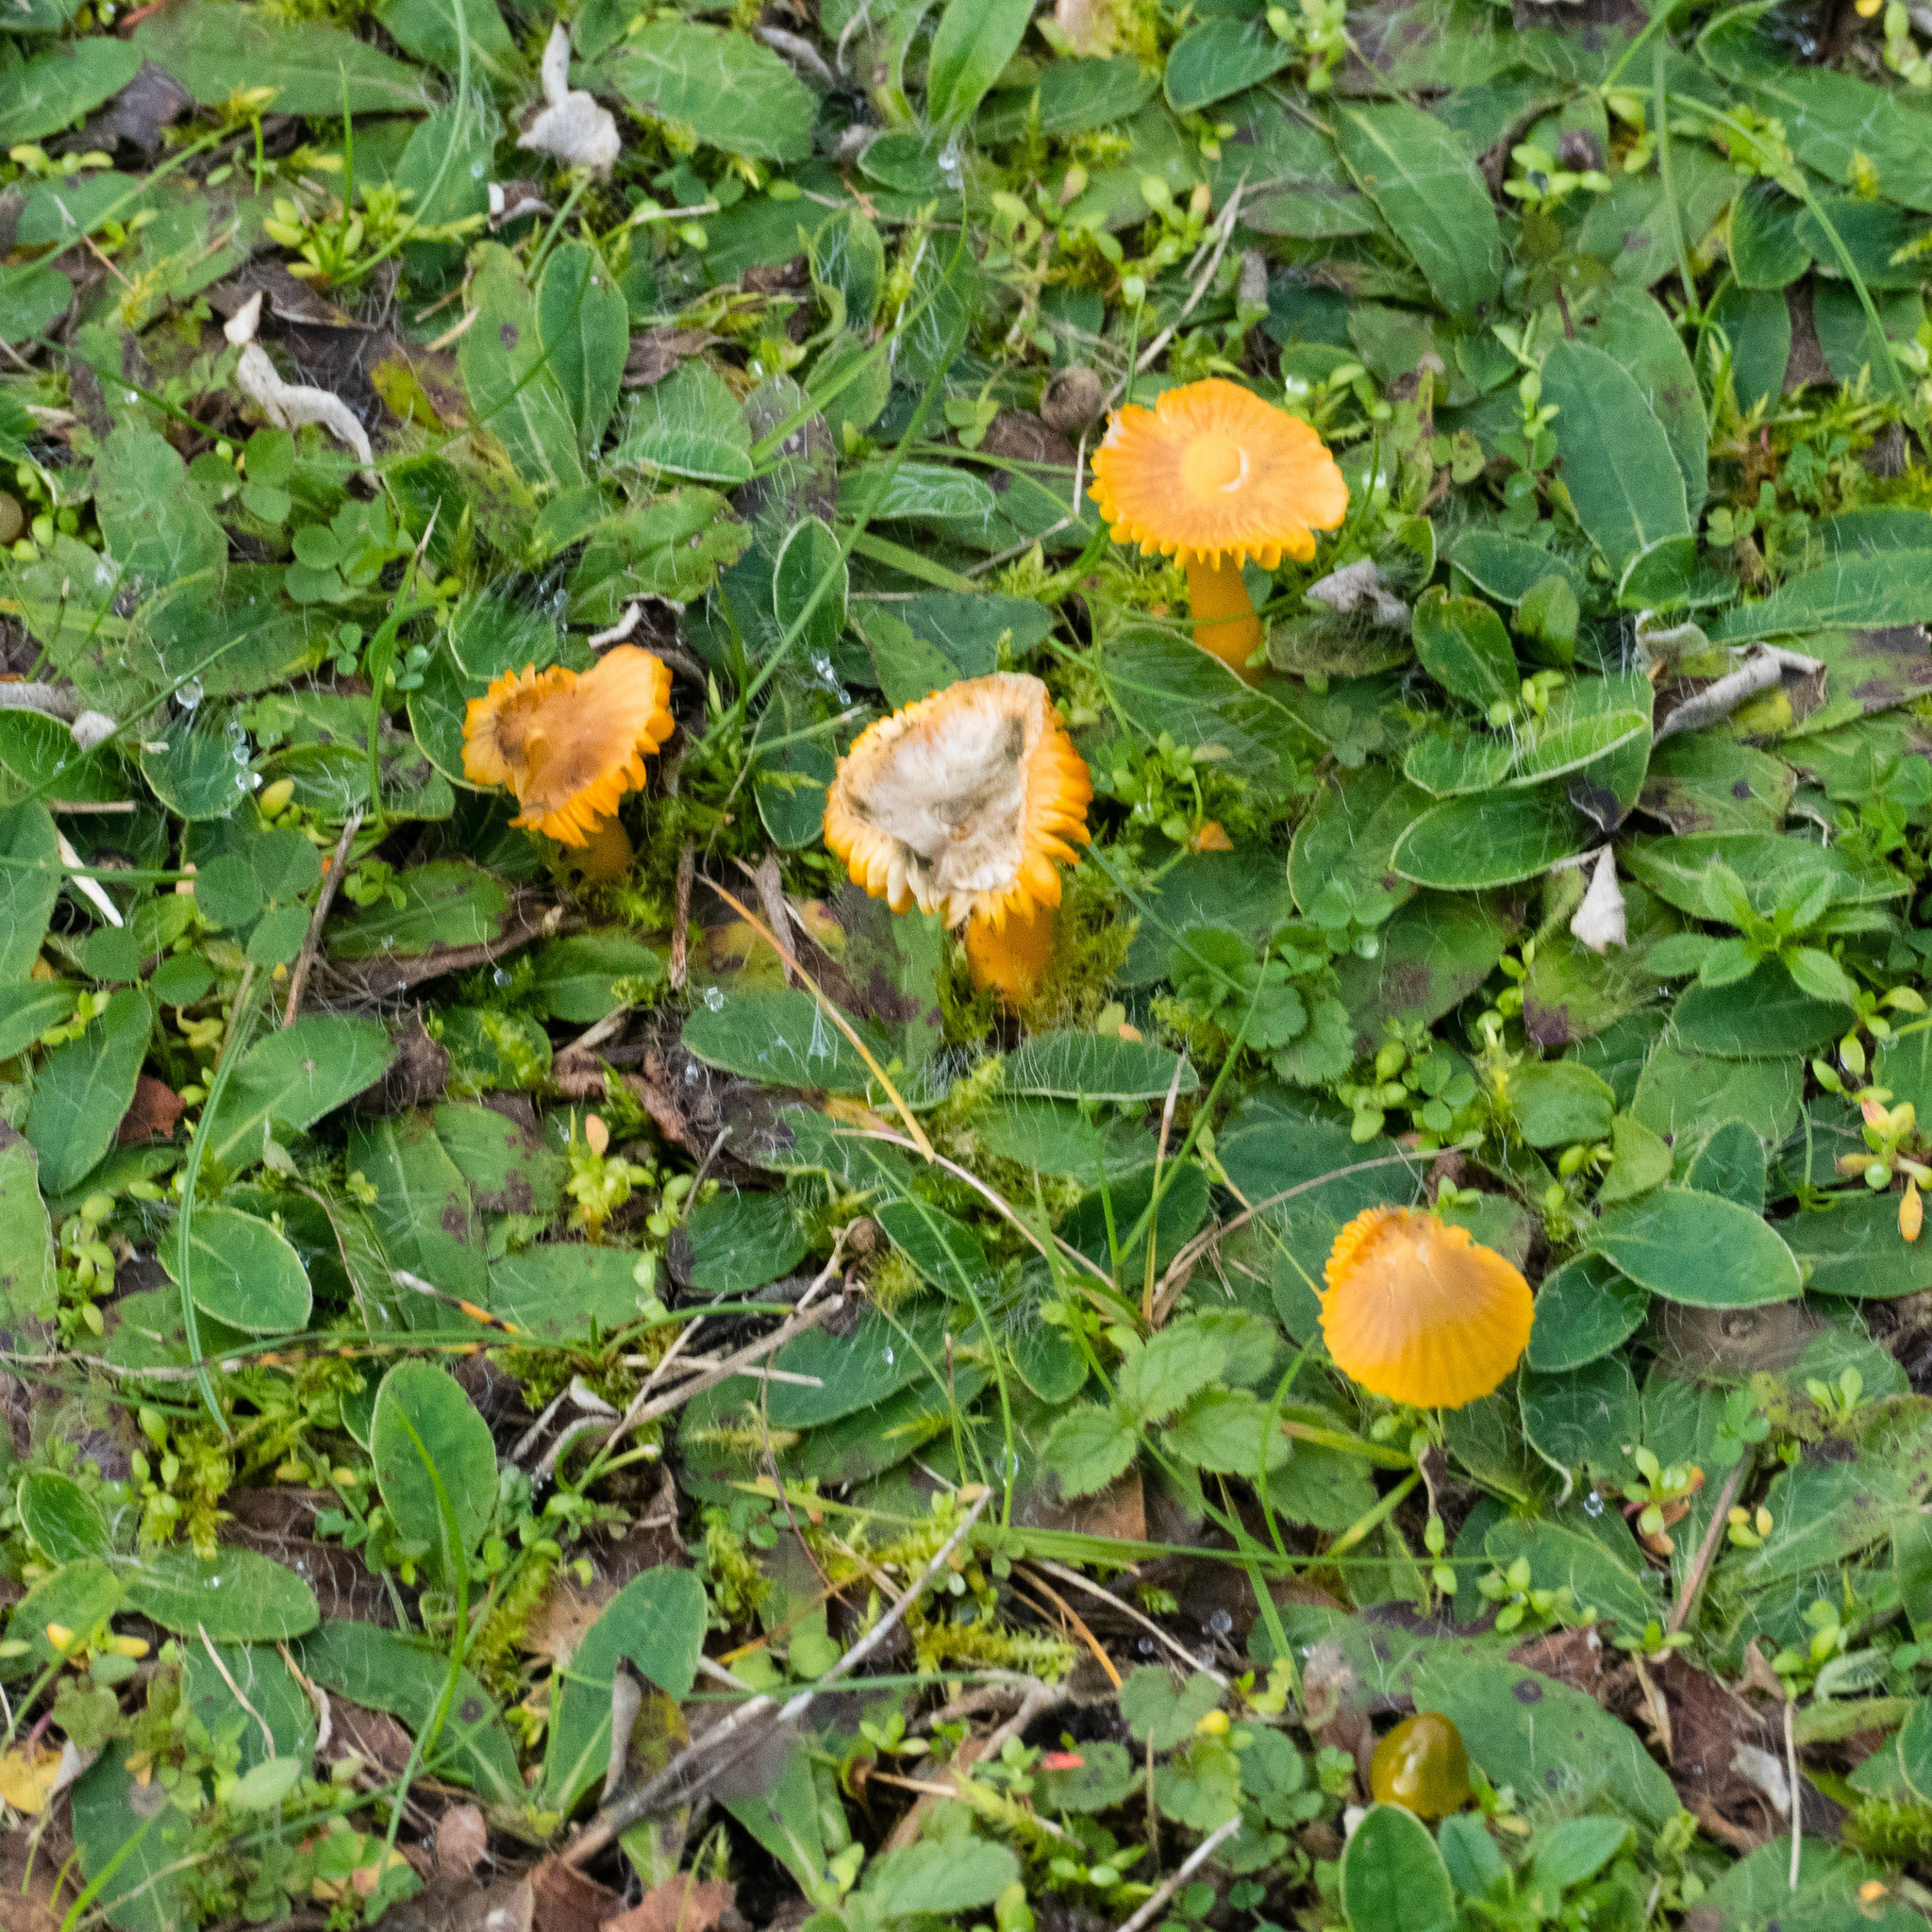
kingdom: Fungi
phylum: Basidiomycota
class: Agaricomycetes
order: Agaricales
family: Hygrophoraceae
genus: Gliophorus
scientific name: Gliophorus psittacinus
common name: Parrot wax-cap
